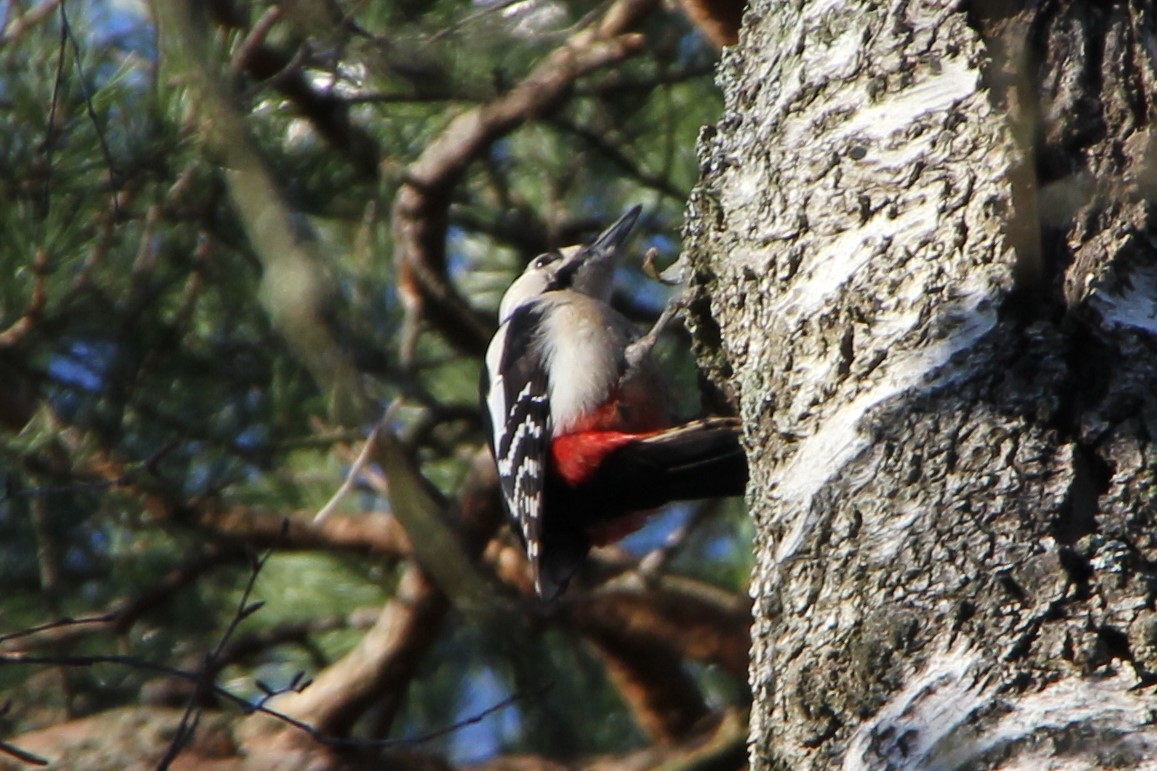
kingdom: Animalia
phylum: Chordata
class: Aves
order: Piciformes
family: Picidae
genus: Dendrocopos
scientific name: Dendrocopos major
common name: Great spotted woodpecker
